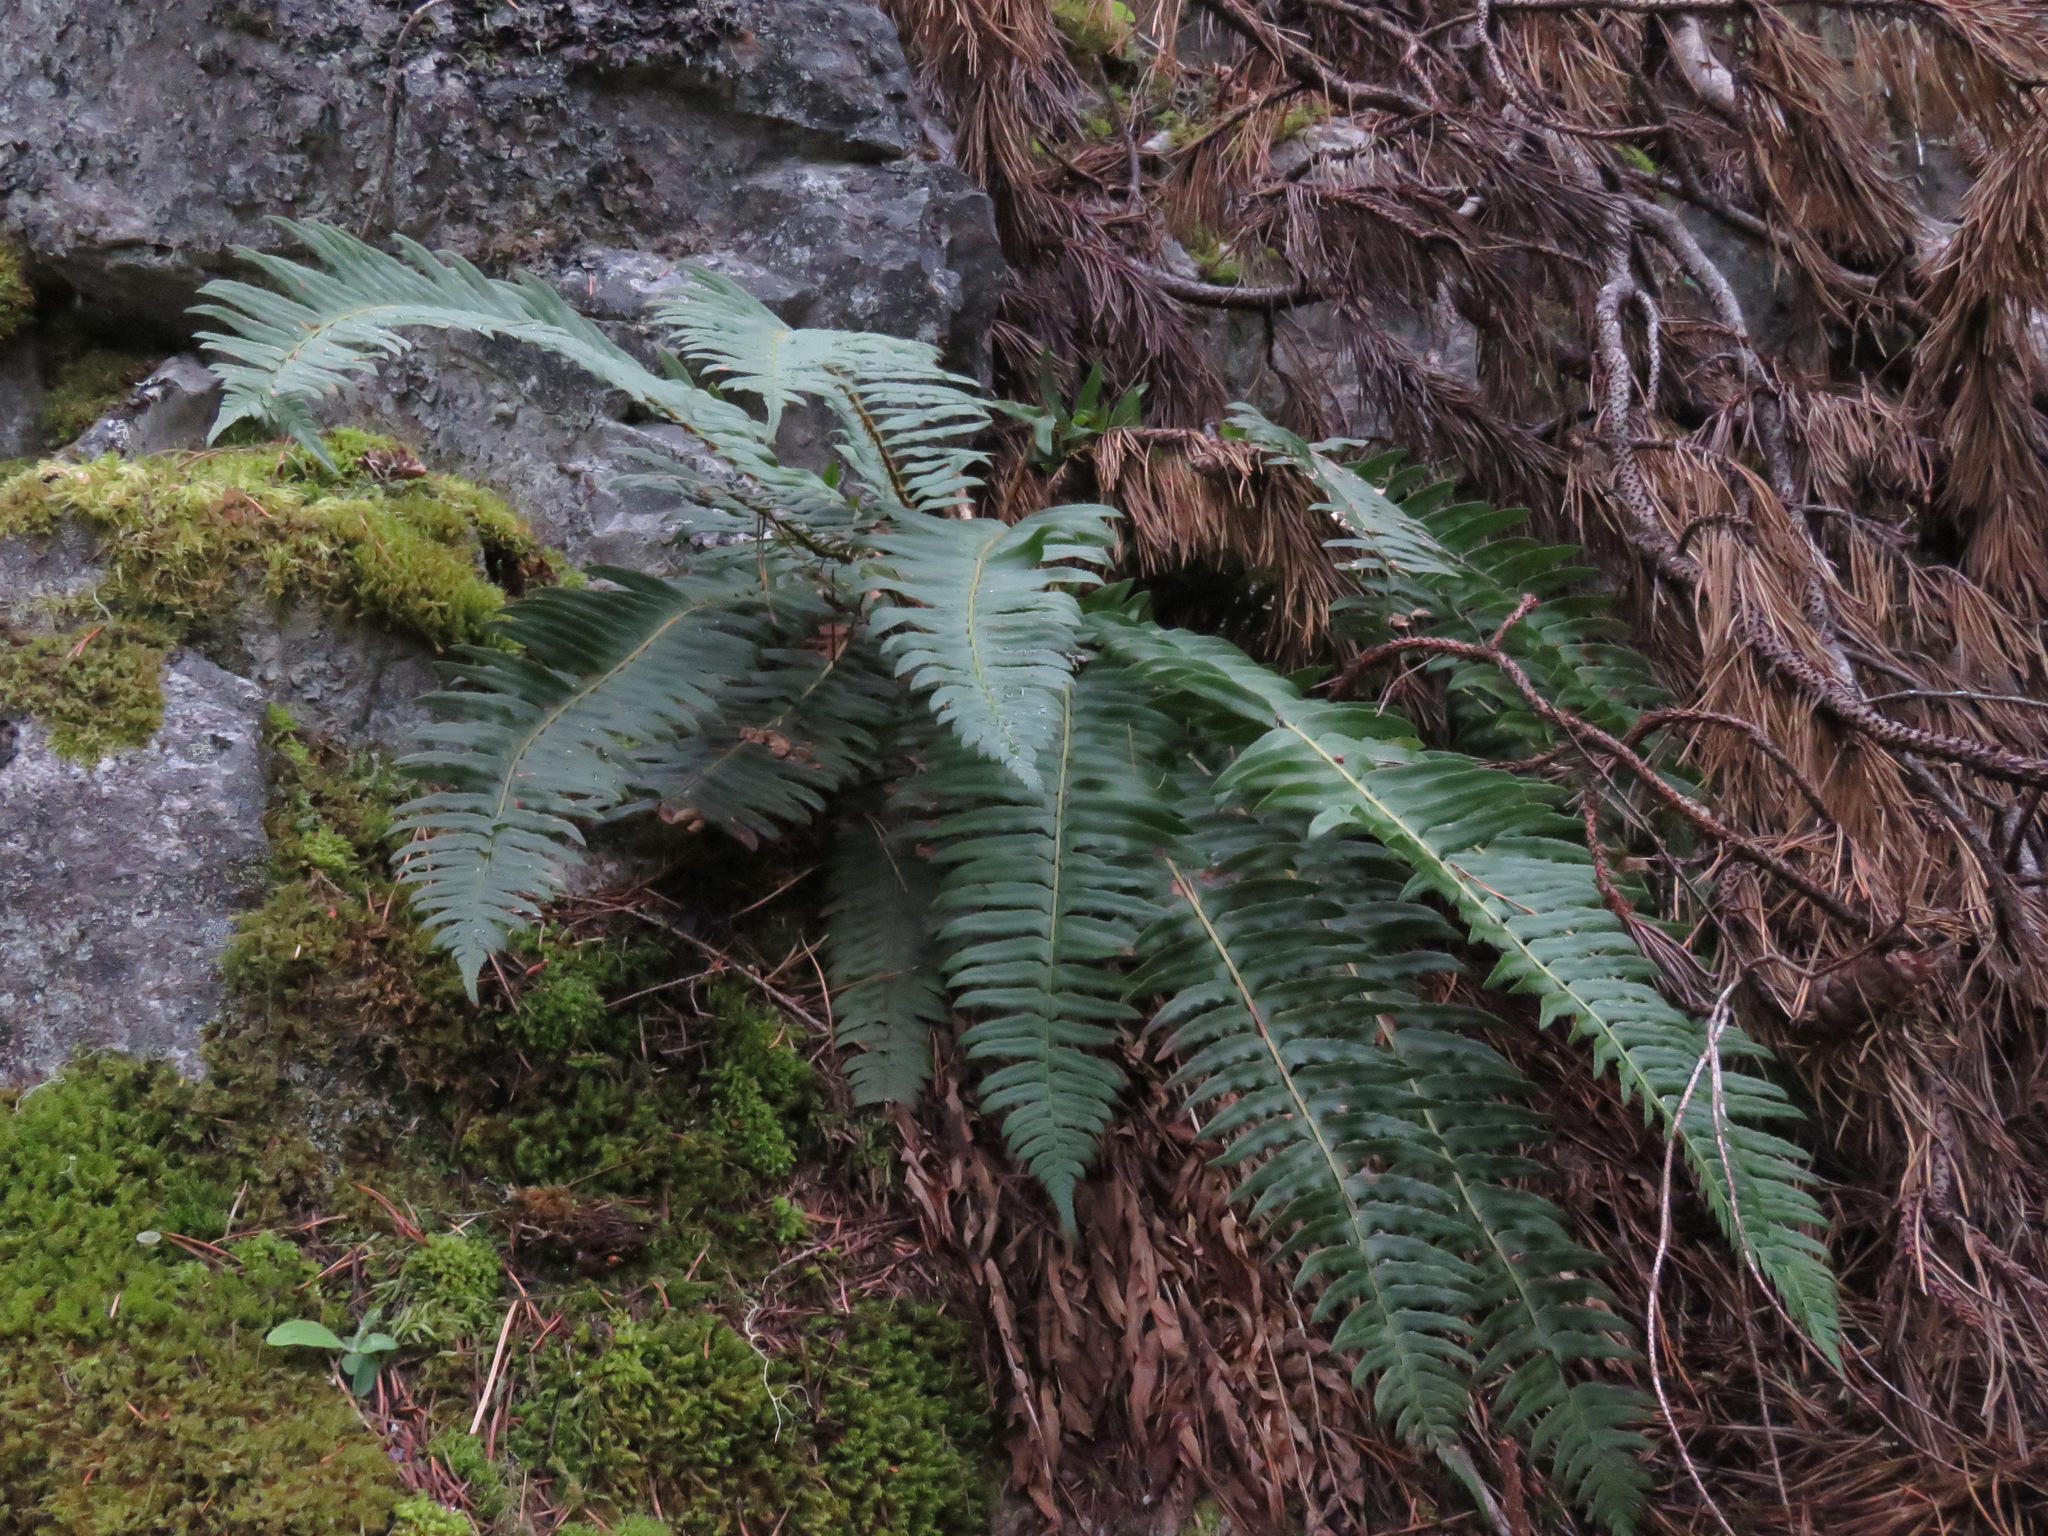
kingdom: Plantae
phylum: Tracheophyta
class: Polypodiopsida
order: Polypodiales
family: Dryopteridaceae
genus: Polystichum
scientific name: Polystichum munitum
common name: Western sword-fern
